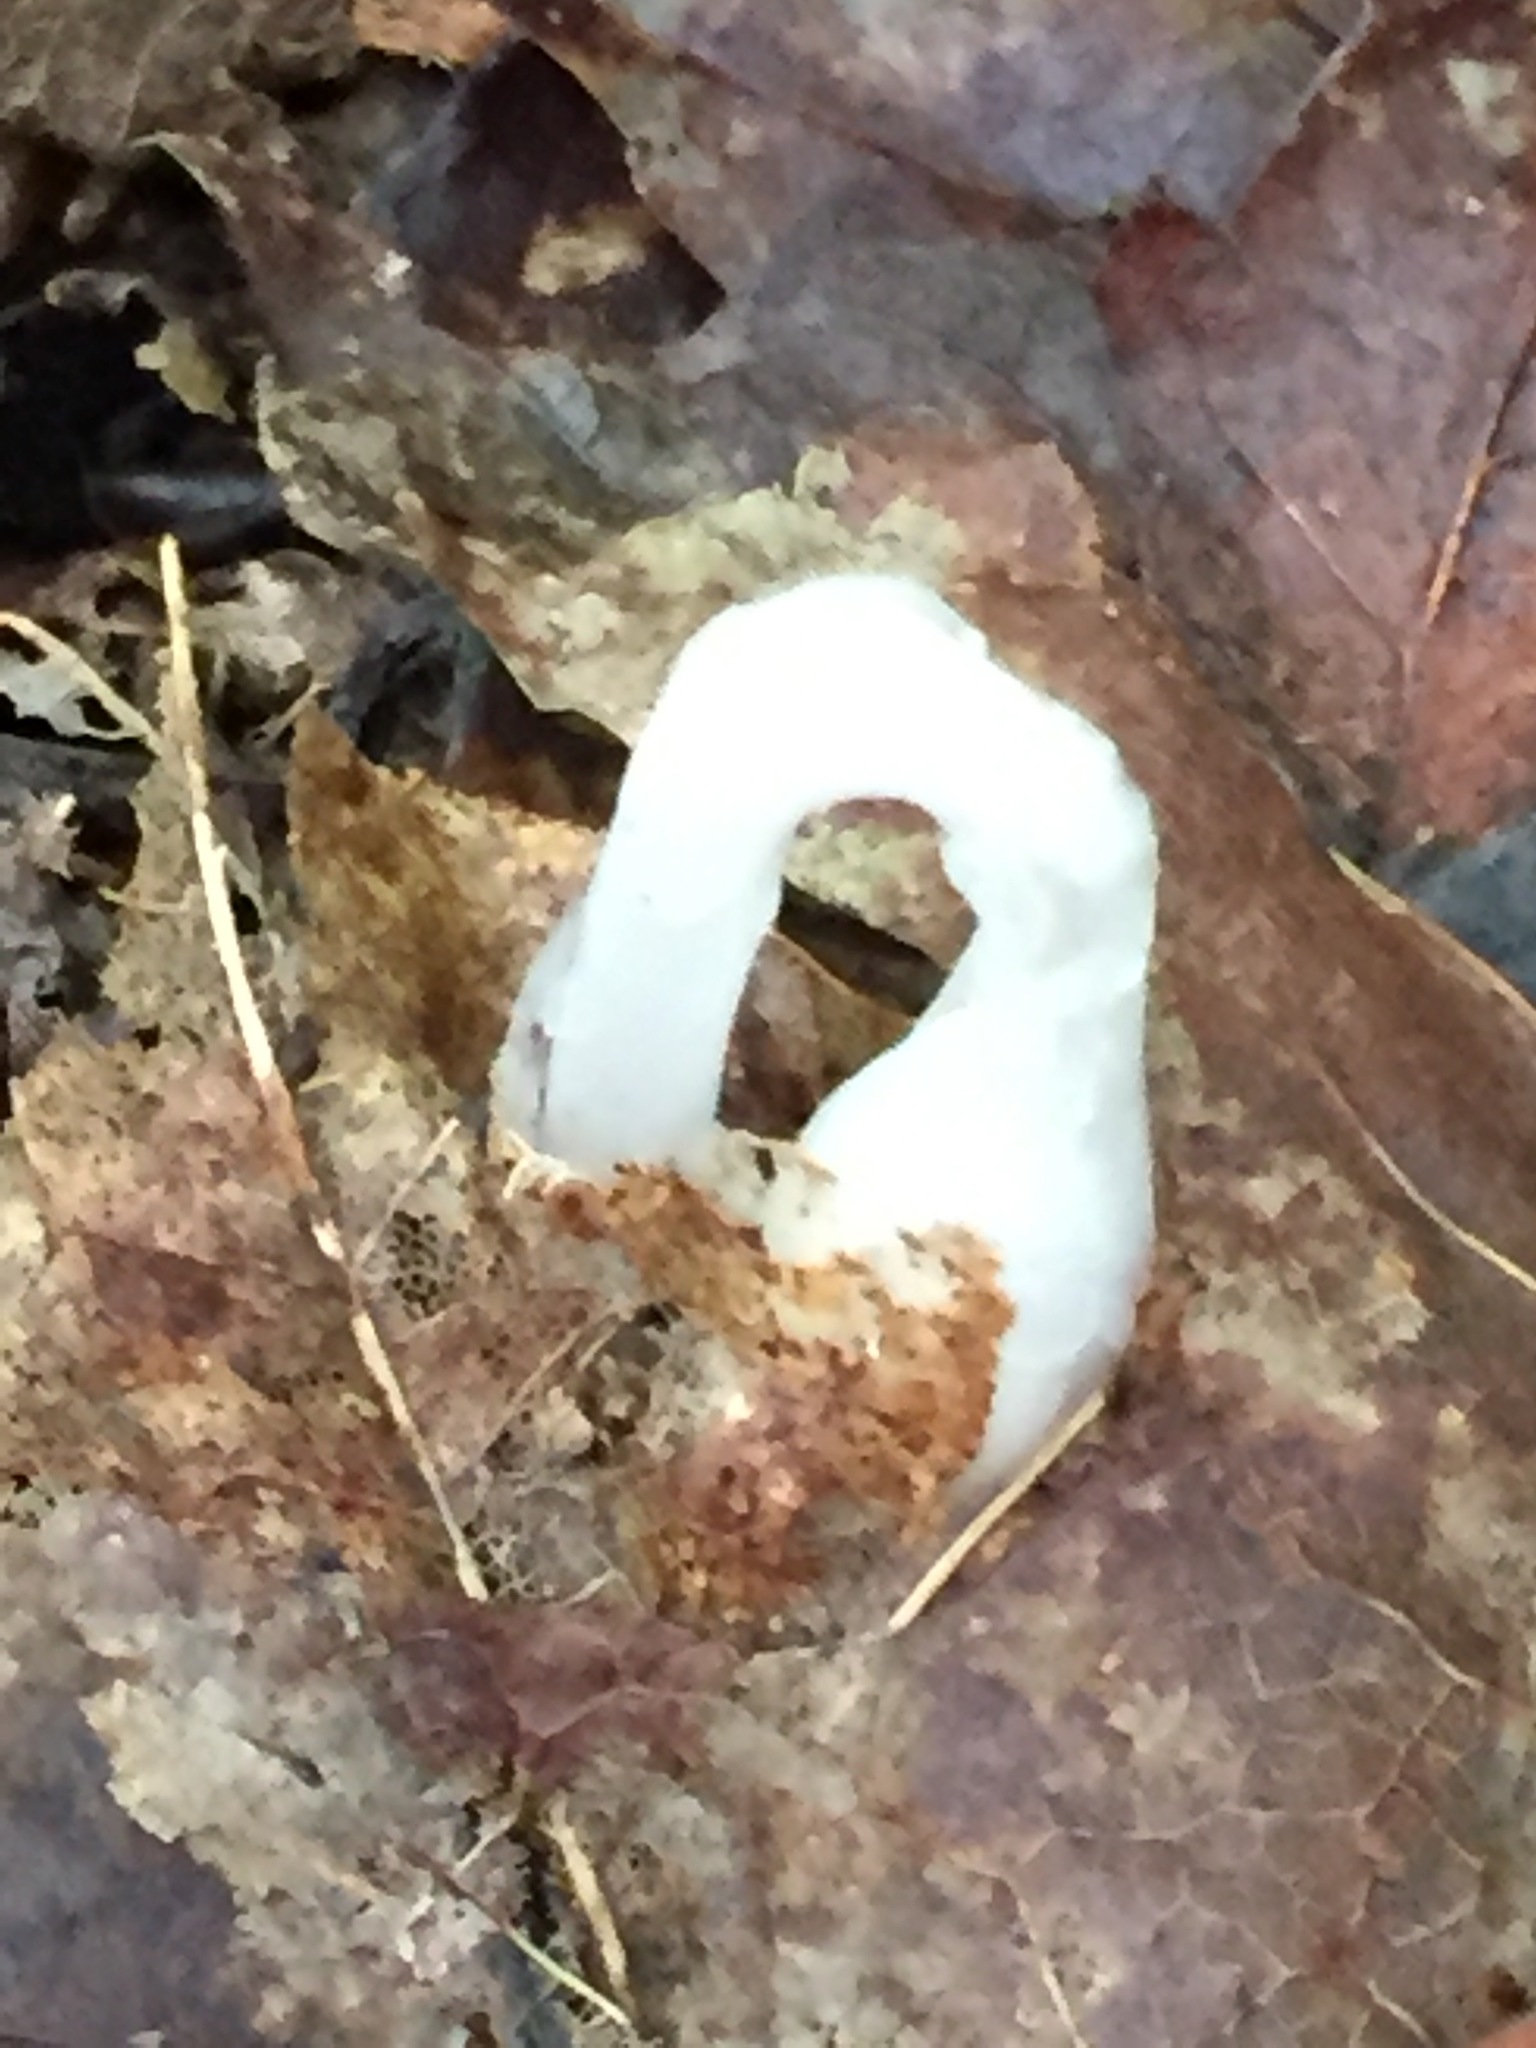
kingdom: Plantae
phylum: Tracheophyta
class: Magnoliopsida
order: Ericales
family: Ericaceae
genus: Monotropa
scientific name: Monotropa uniflora
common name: Convulsion root
